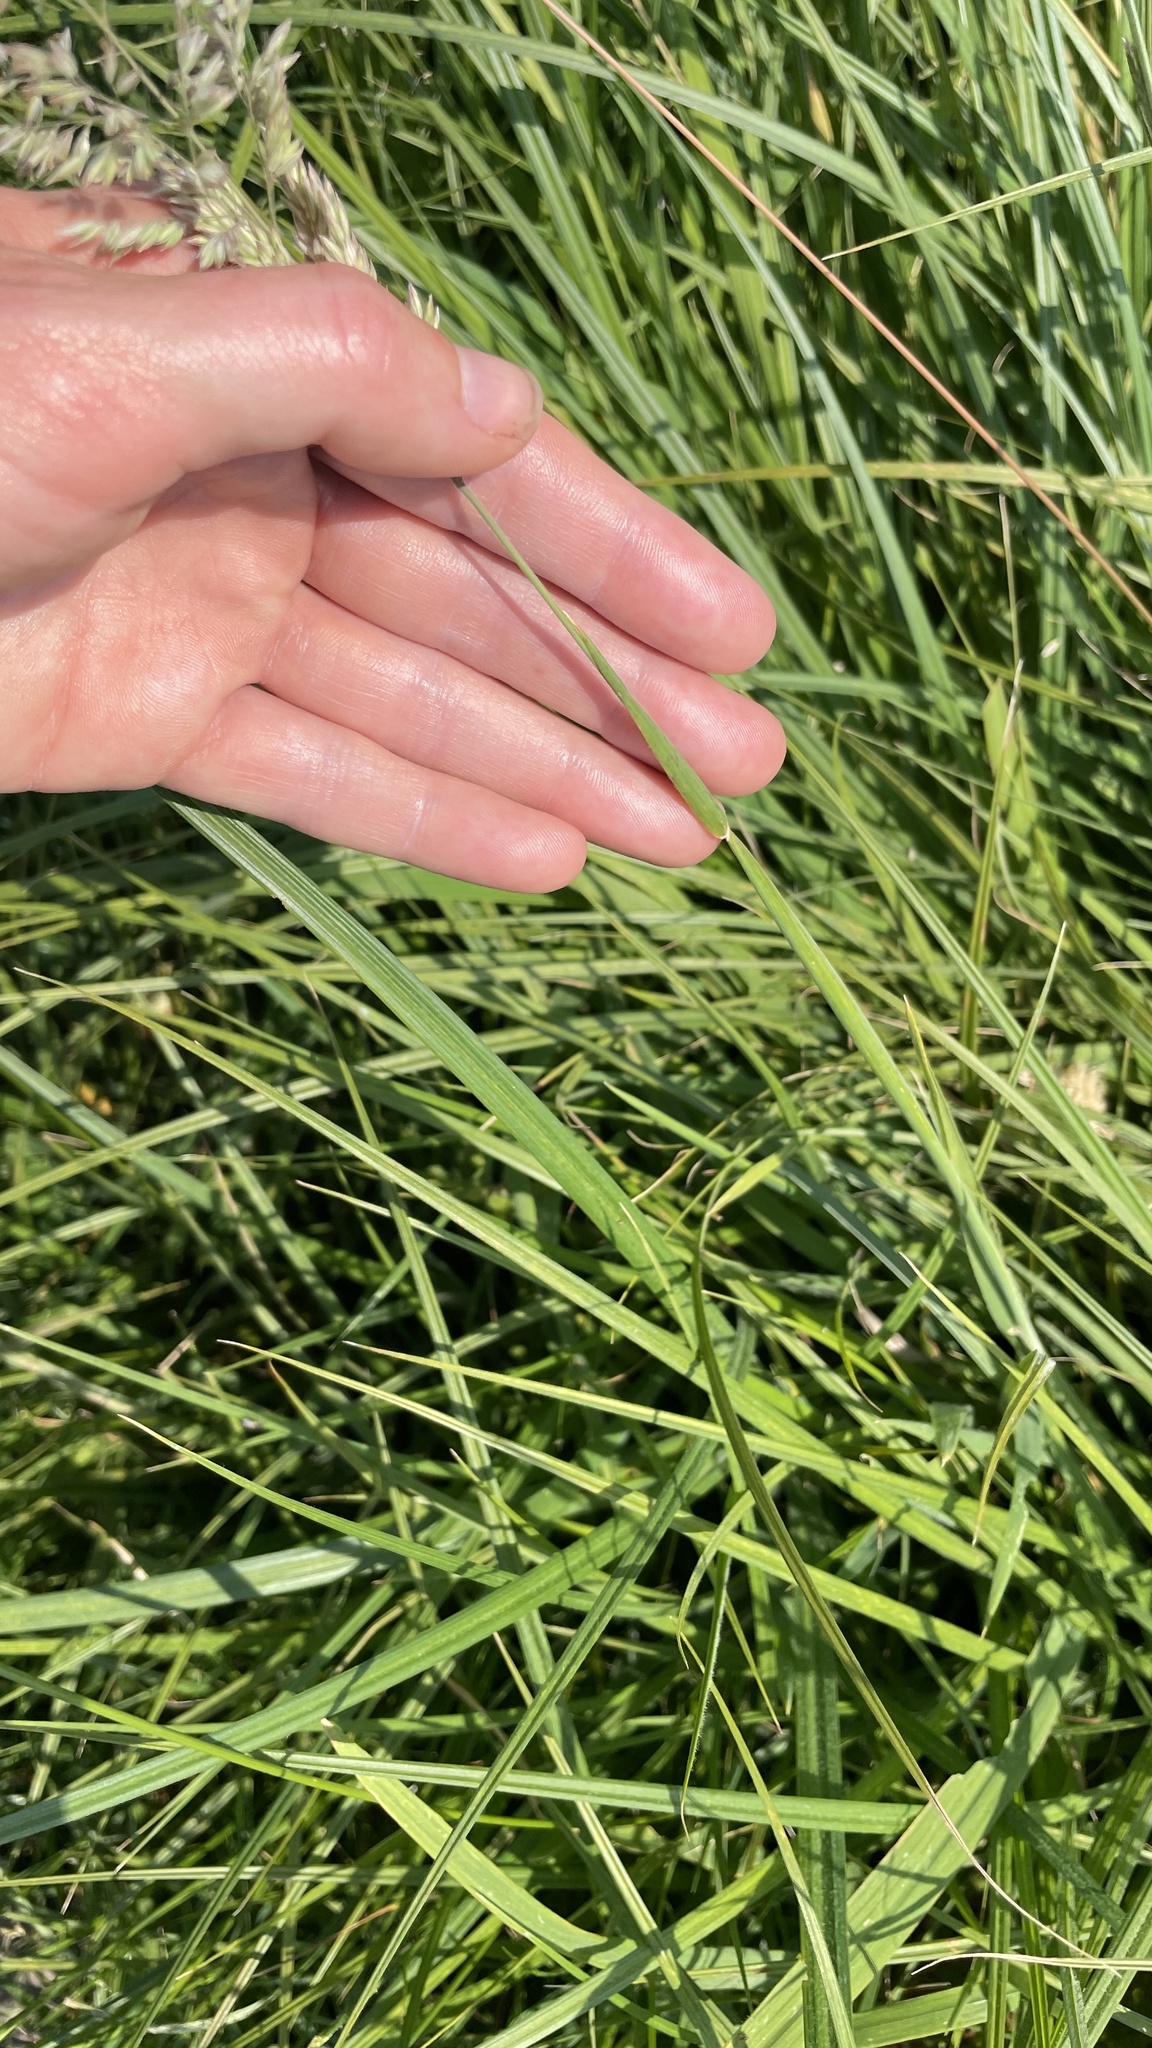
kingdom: Plantae
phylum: Tracheophyta
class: Liliopsida
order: Poales
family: Poaceae
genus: Holcus
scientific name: Holcus lanatus
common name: Yorkshire-fog
